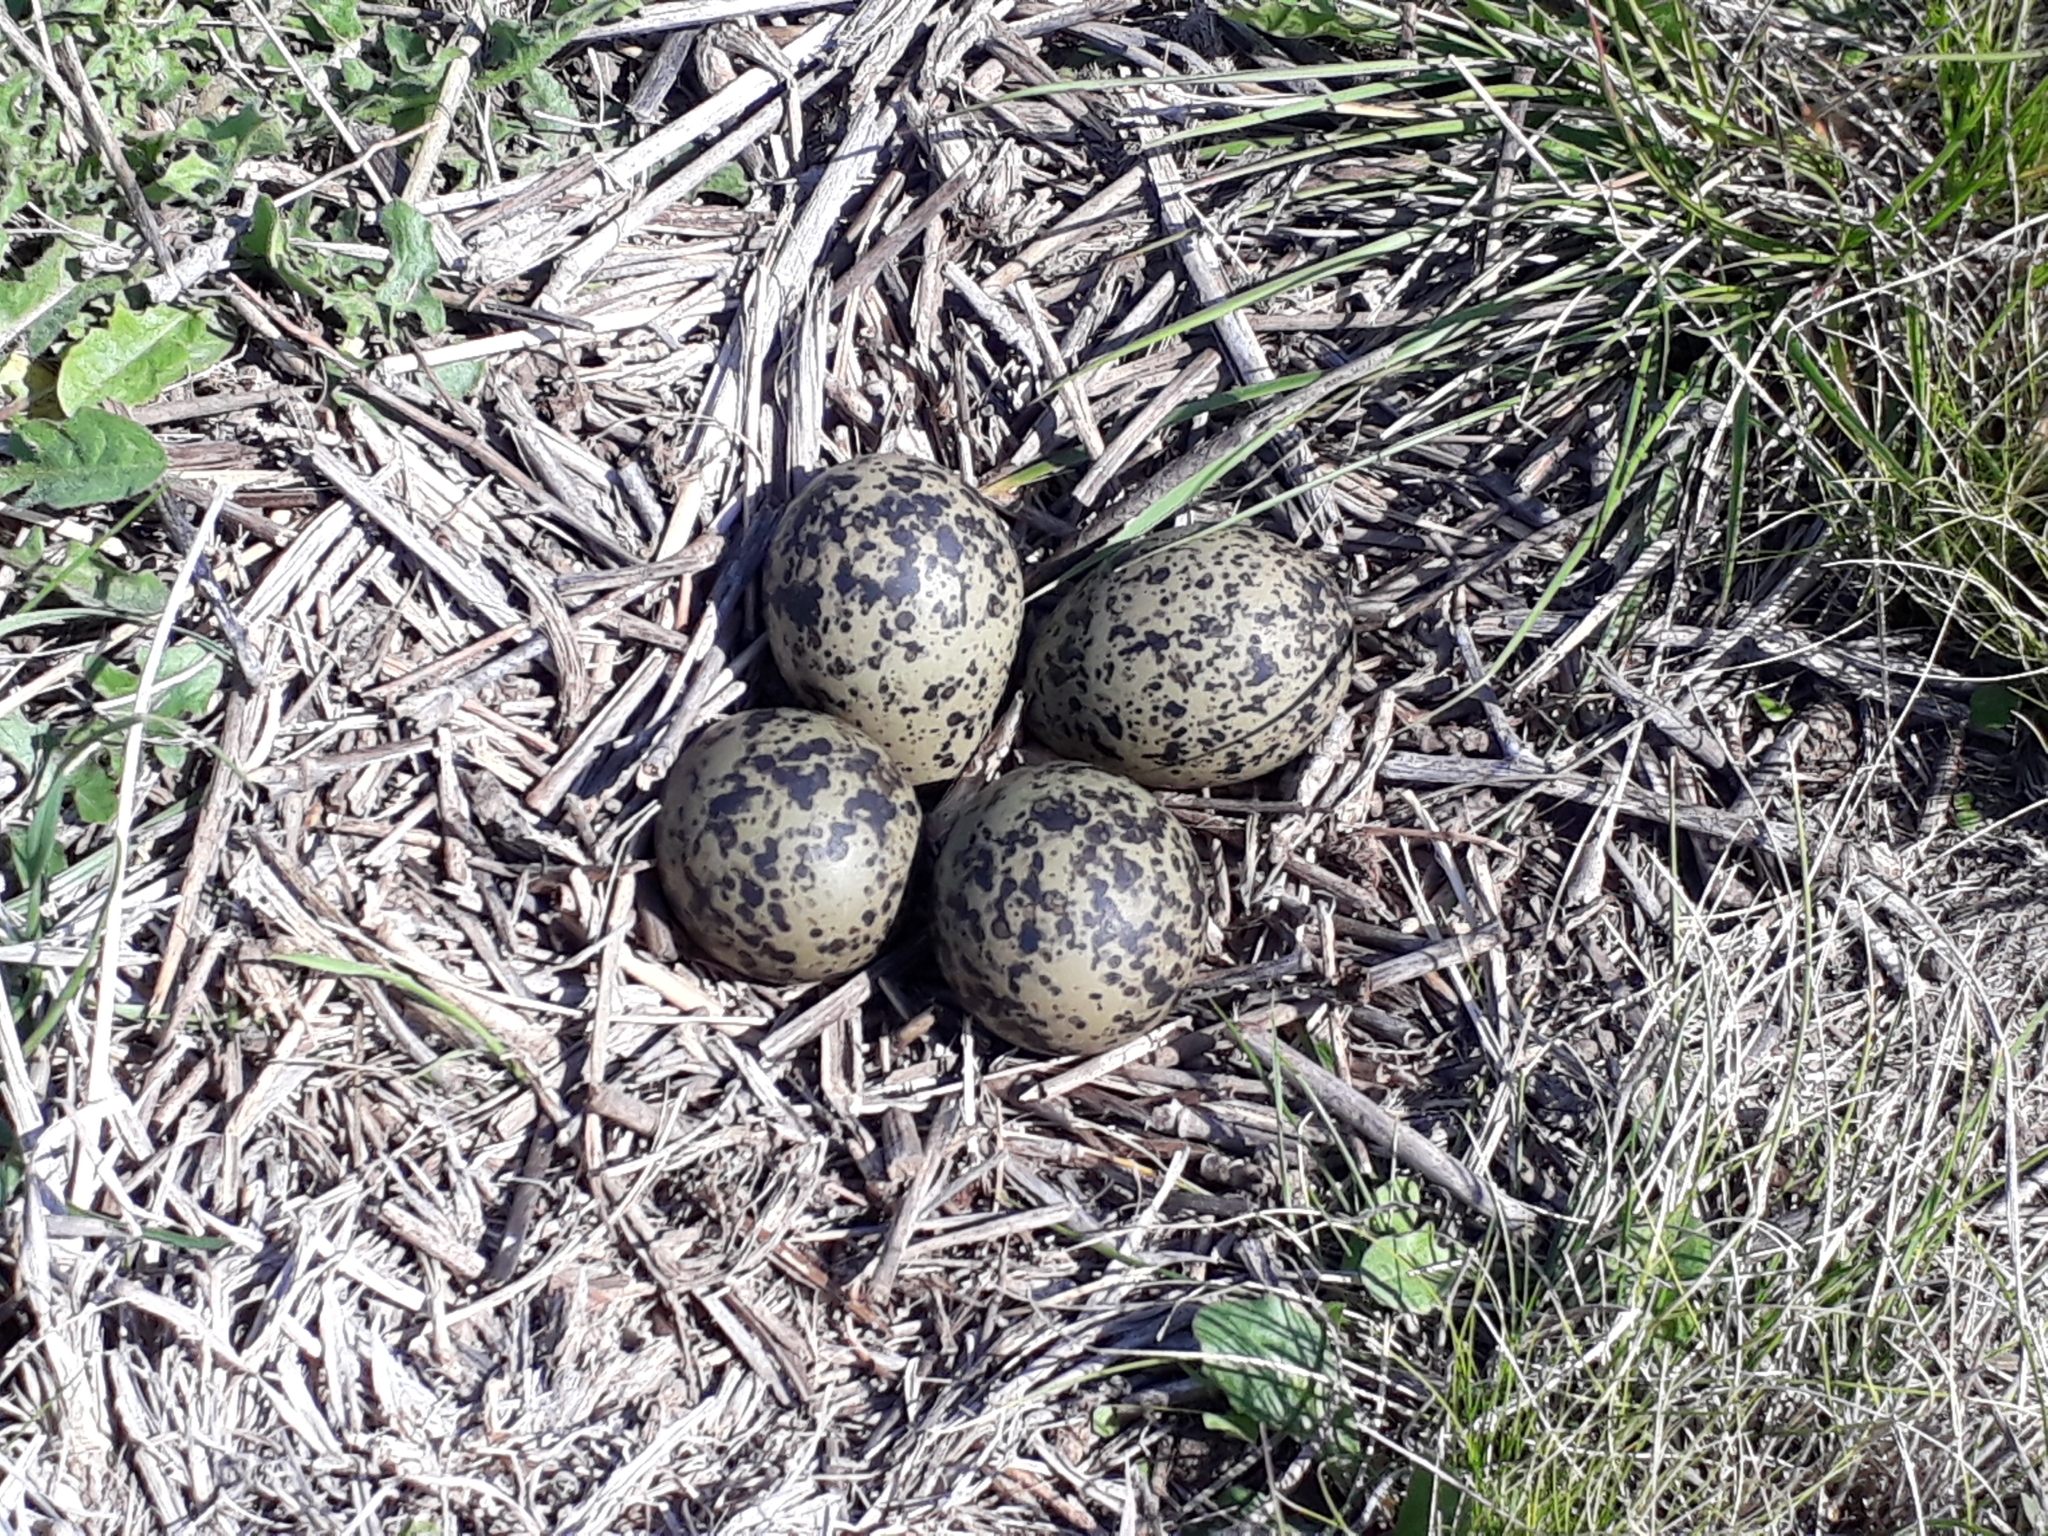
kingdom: Animalia
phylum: Chordata
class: Aves
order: Charadriiformes
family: Charadriidae
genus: Vanellus
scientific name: Vanellus chilensis
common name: Southern lapwing
